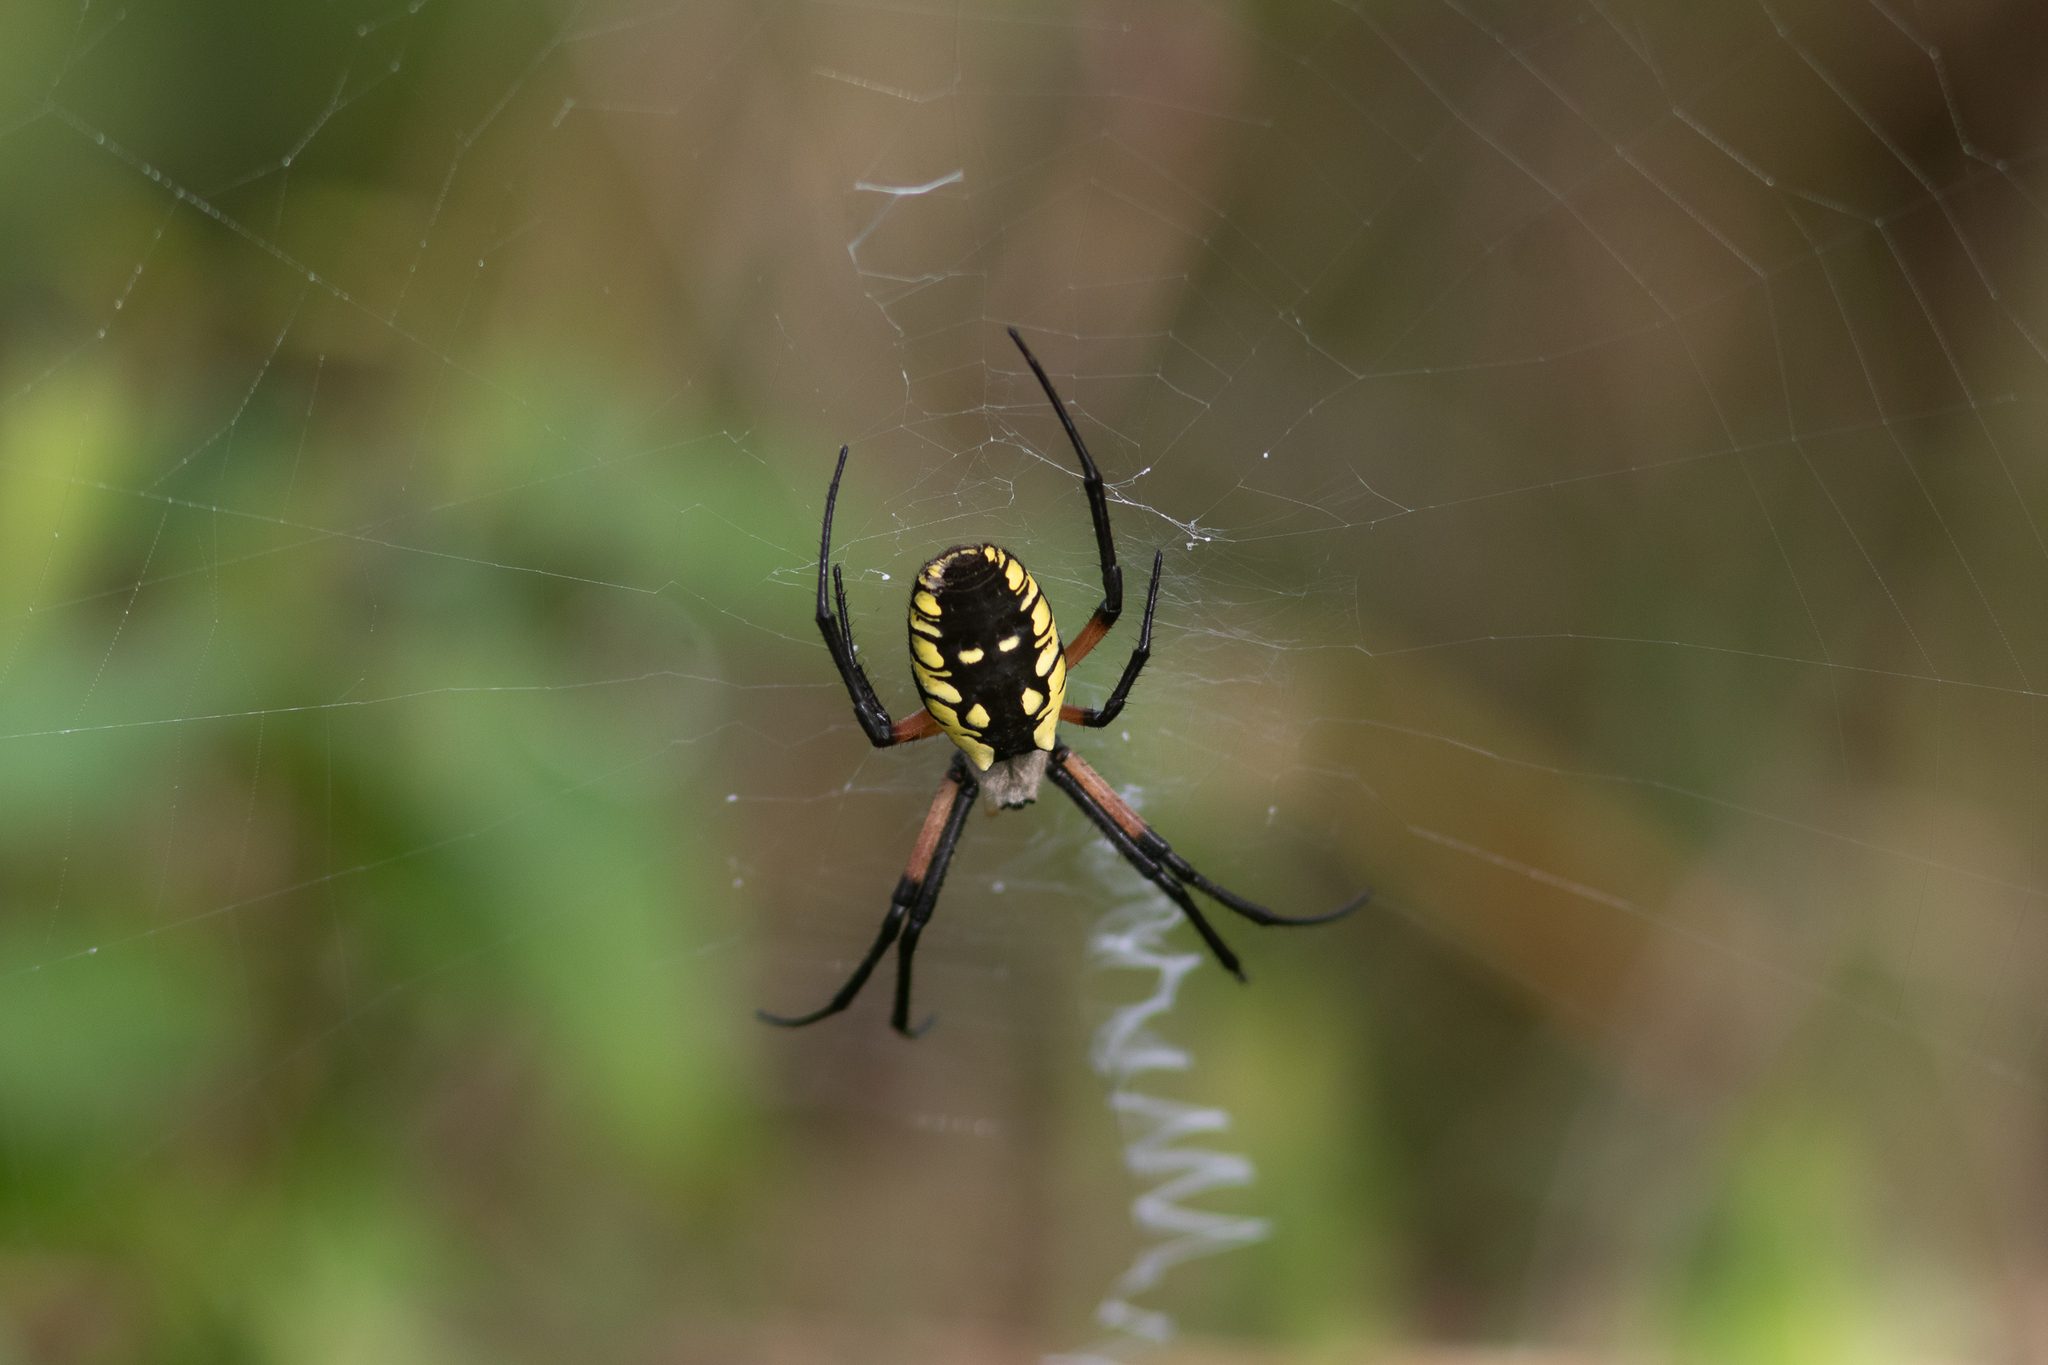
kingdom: Animalia
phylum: Arthropoda
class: Arachnida
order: Araneae
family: Araneidae
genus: Argiope
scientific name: Argiope aurantia
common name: Orb weavers
